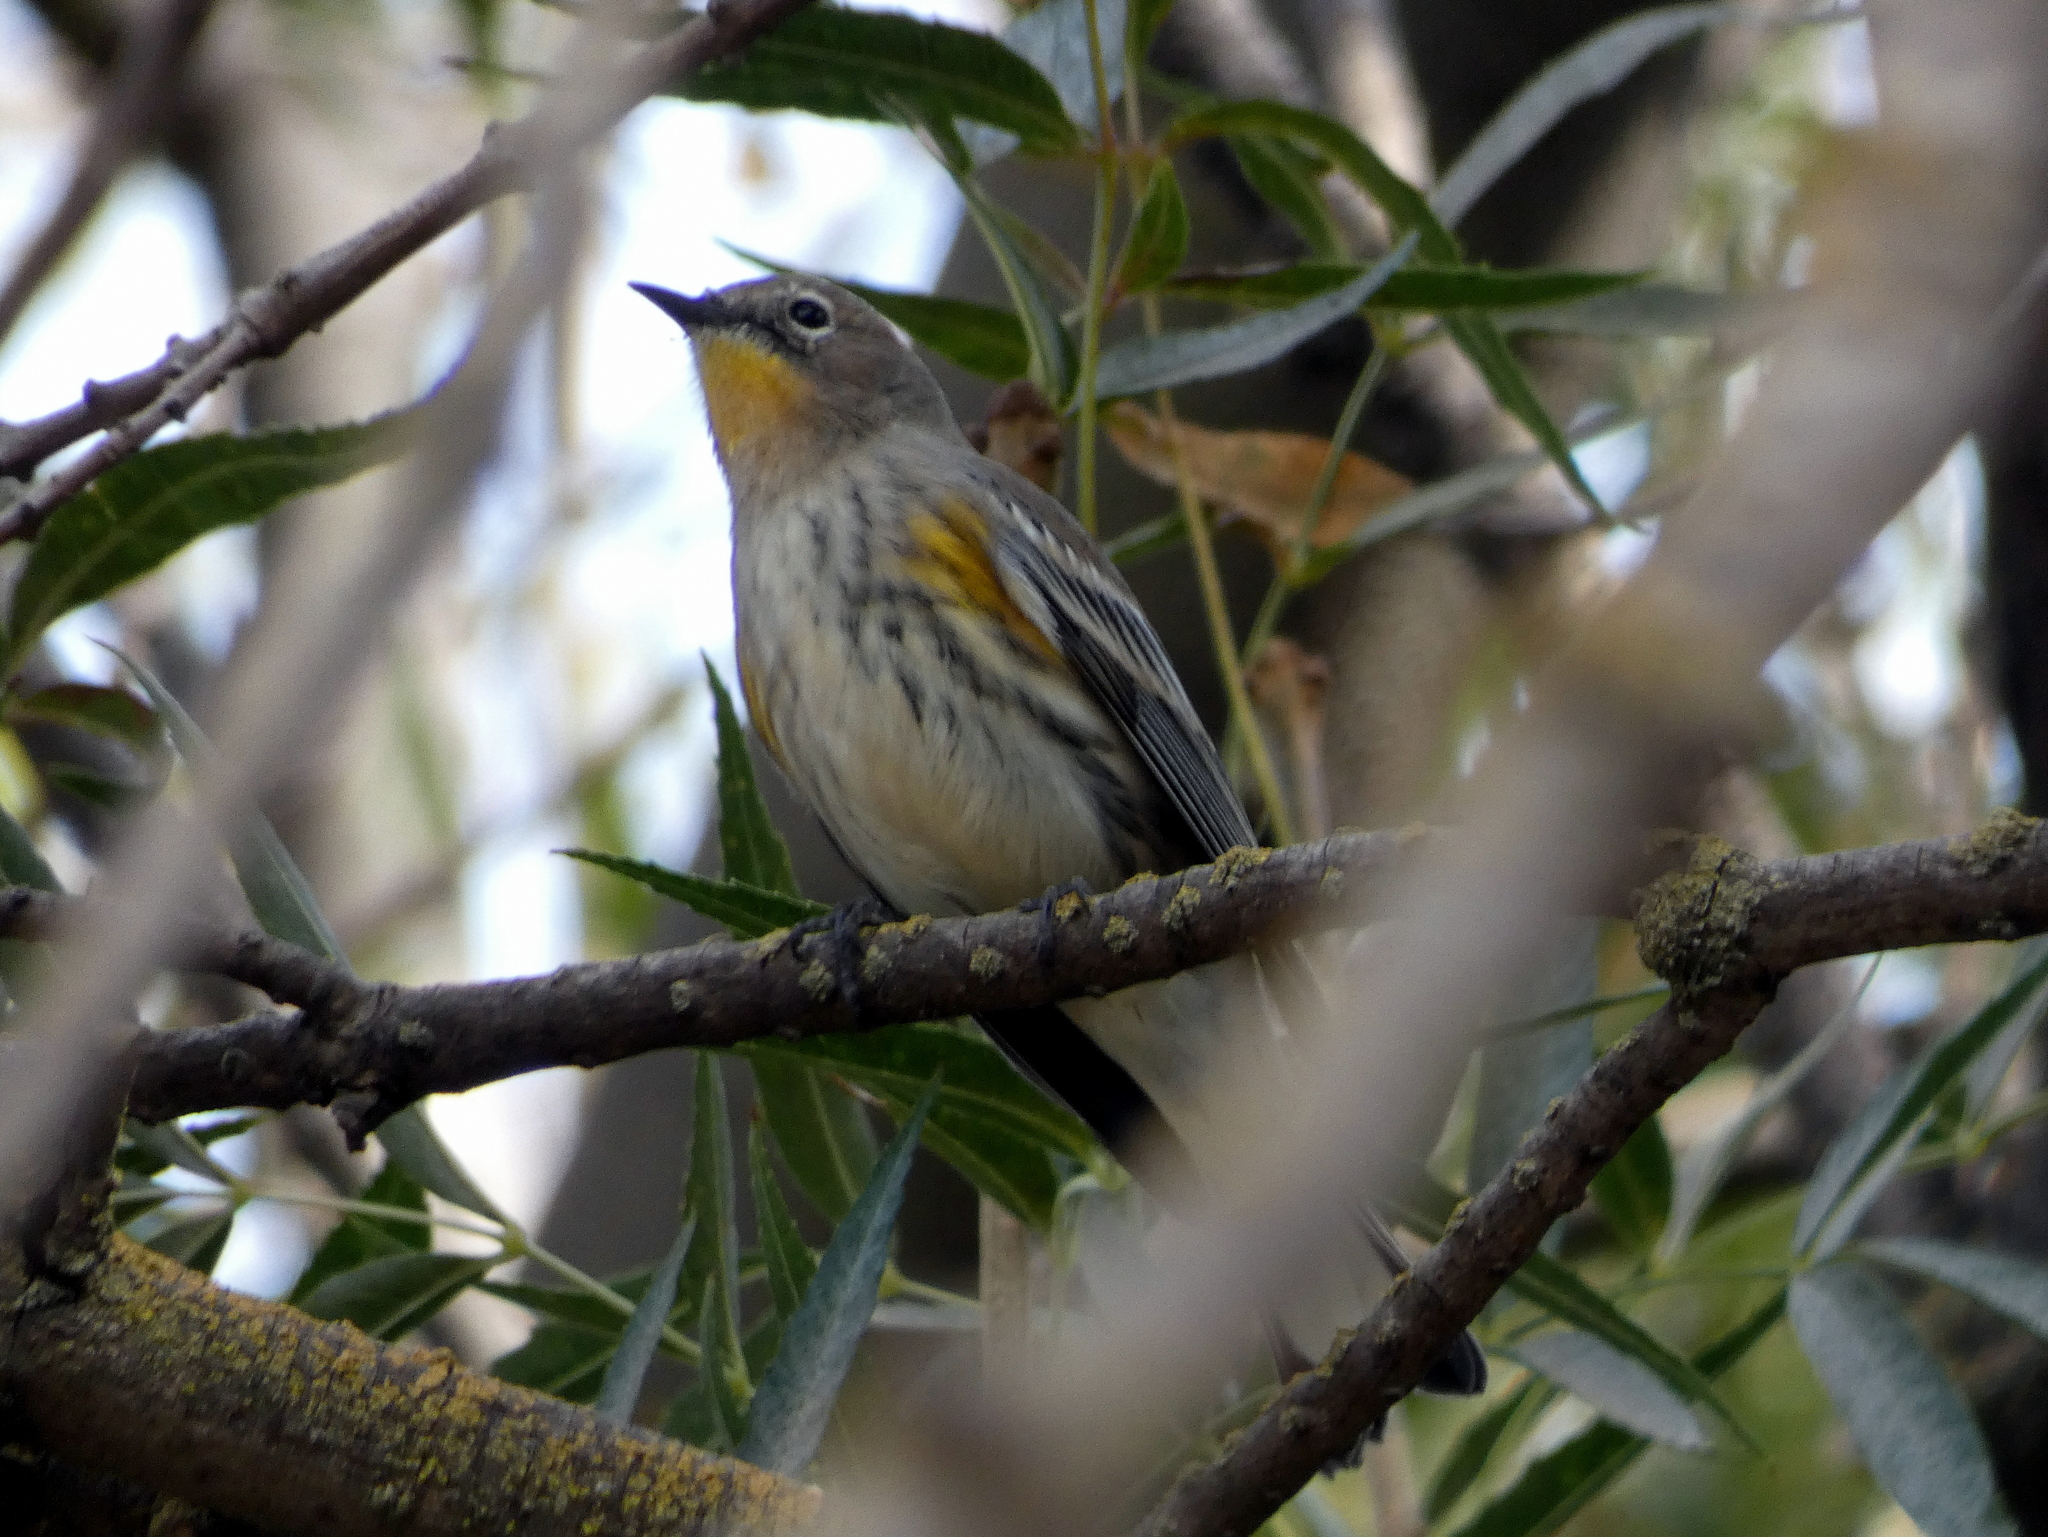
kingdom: Animalia
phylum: Chordata
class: Aves
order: Passeriformes
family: Parulidae
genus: Setophaga
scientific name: Setophaga coronata
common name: Myrtle warbler
